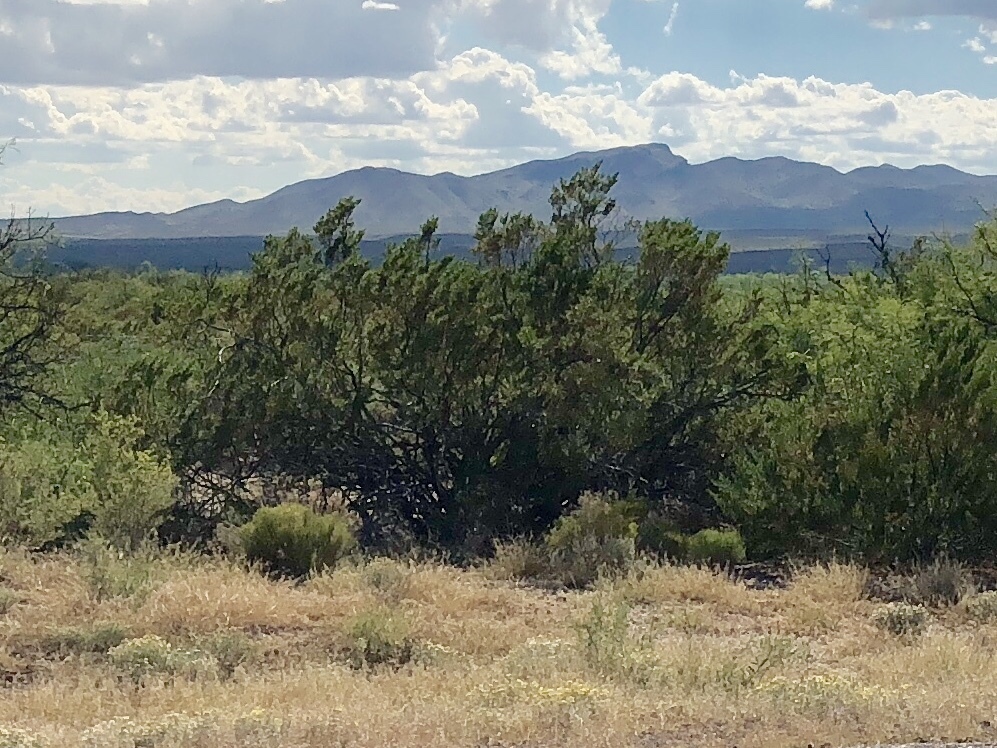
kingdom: Plantae
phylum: Tracheophyta
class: Magnoliopsida
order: Zygophyllales
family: Zygophyllaceae
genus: Larrea
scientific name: Larrea tridentata
